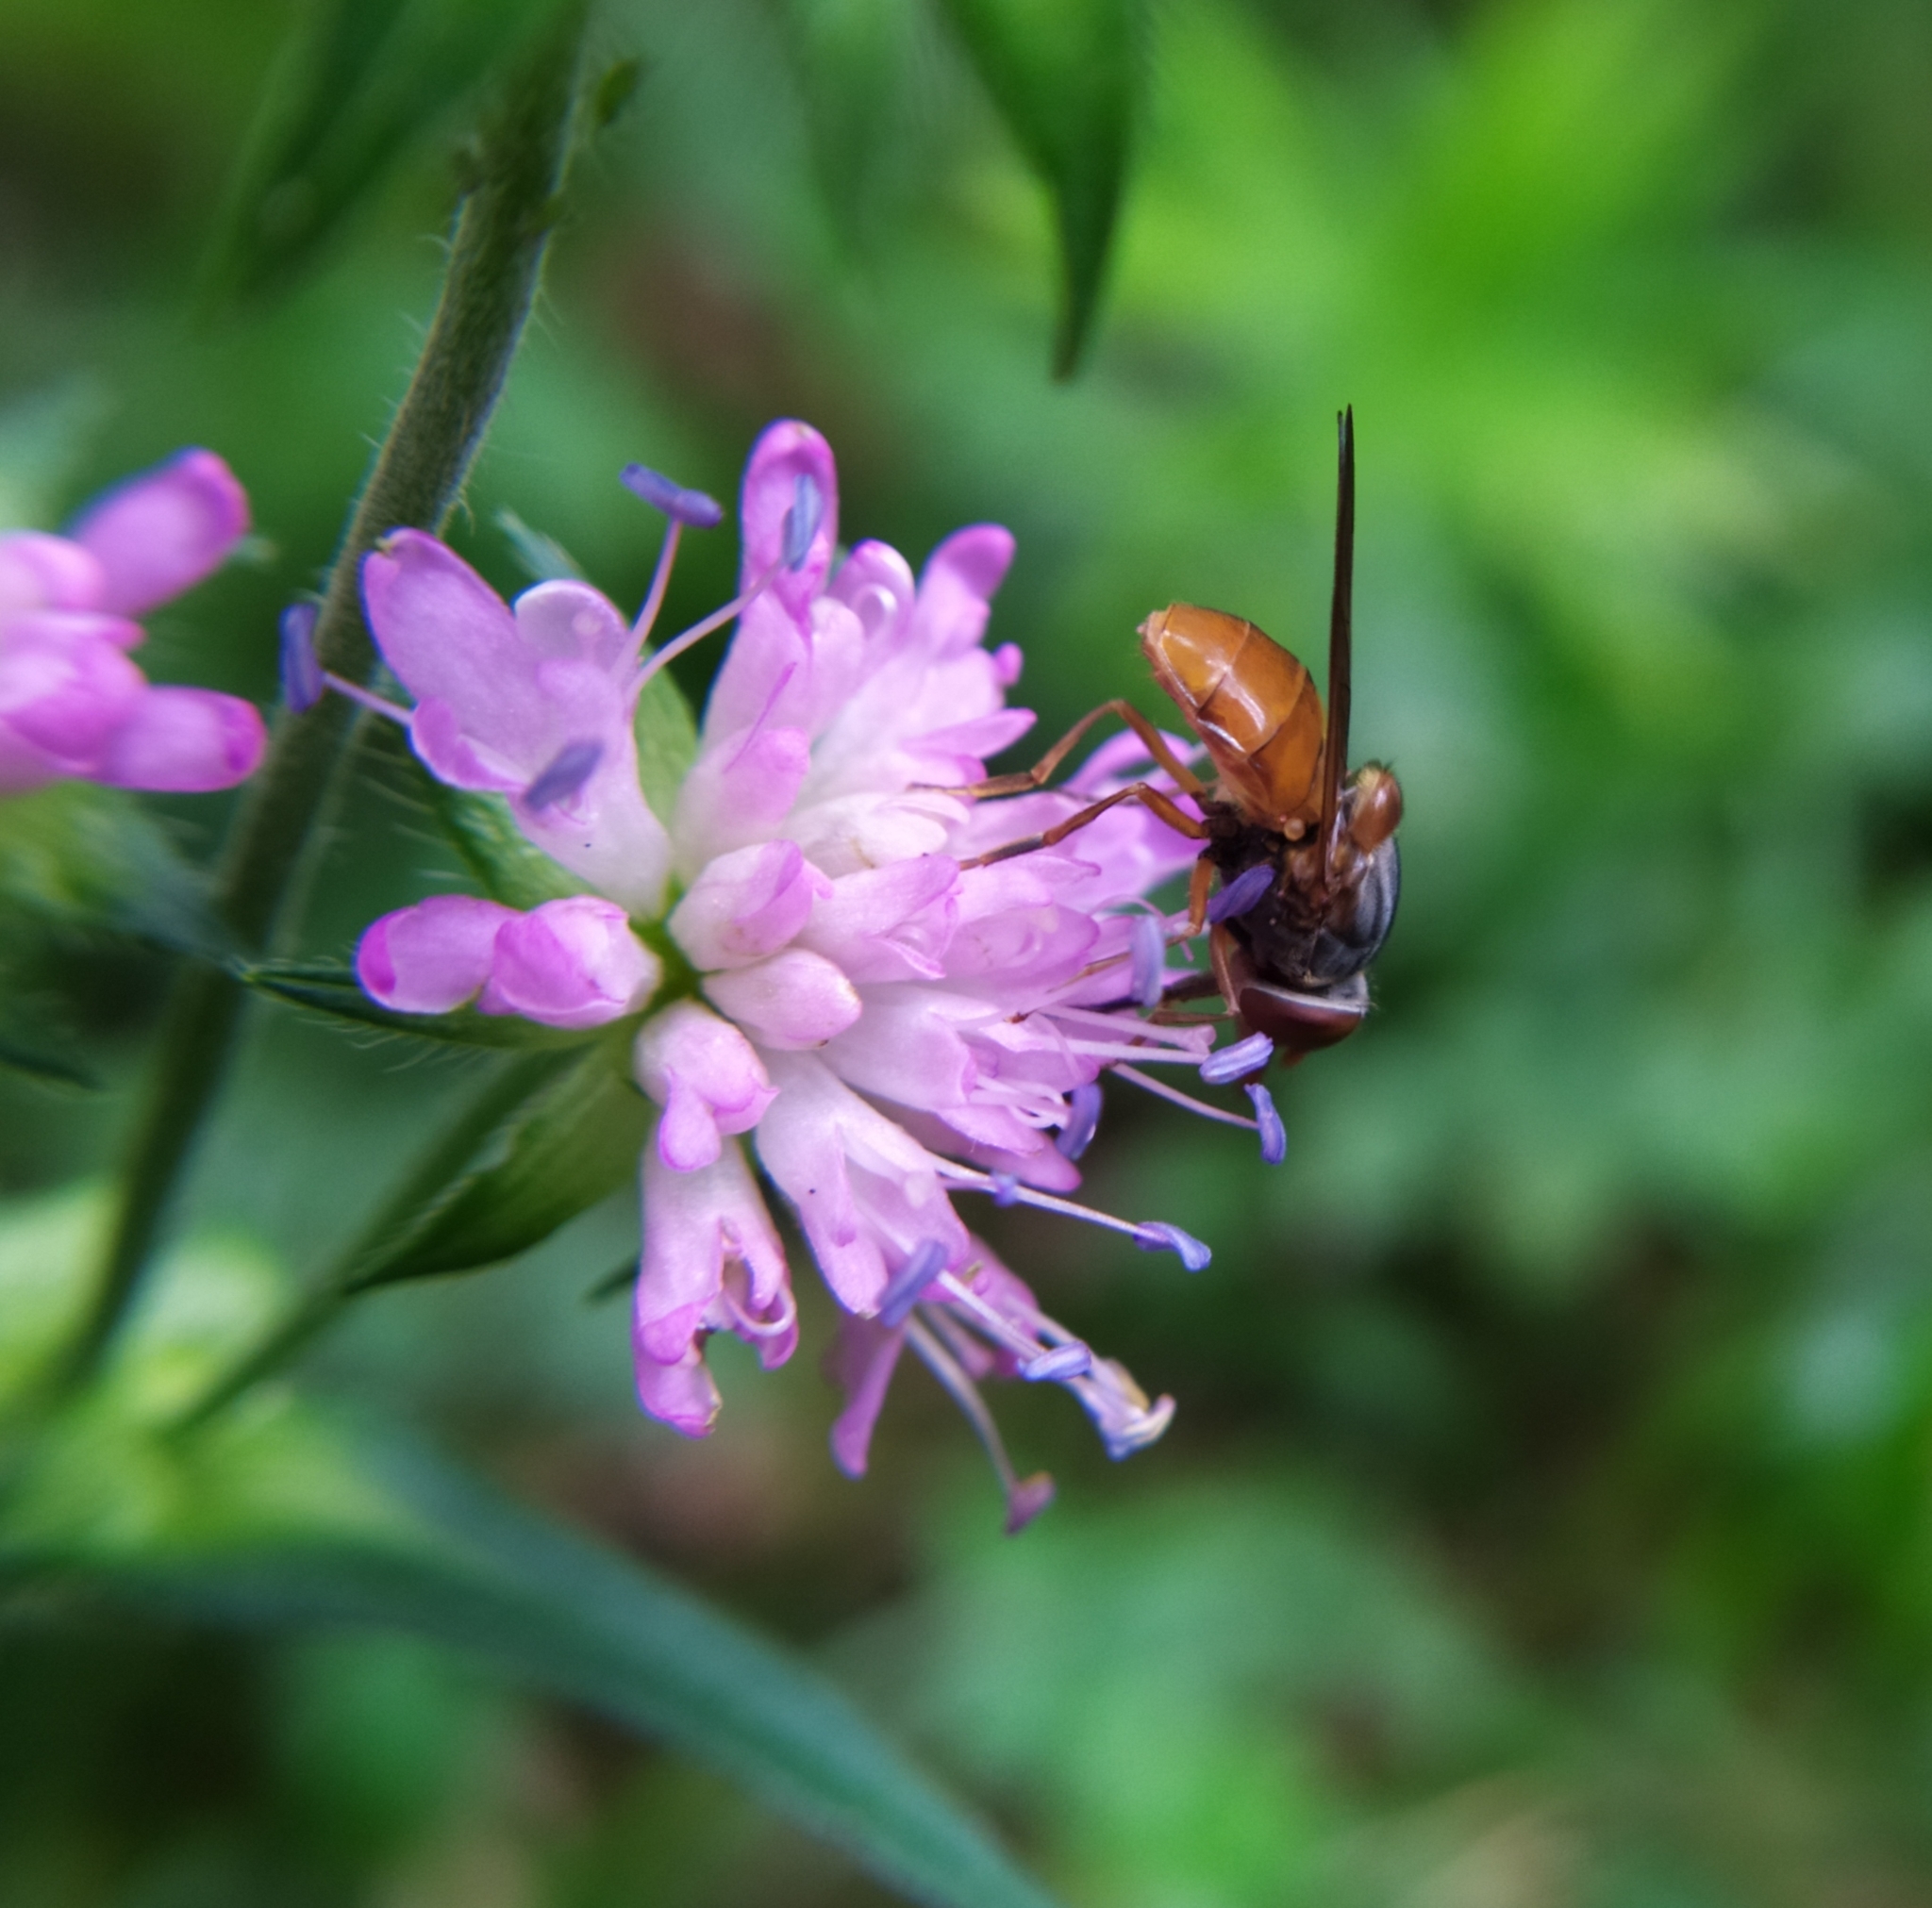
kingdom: Animalia
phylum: Arthropoda
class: Insecta
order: Diptera
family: Syrphidae
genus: Rhingia
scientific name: Rhingia rostrata
